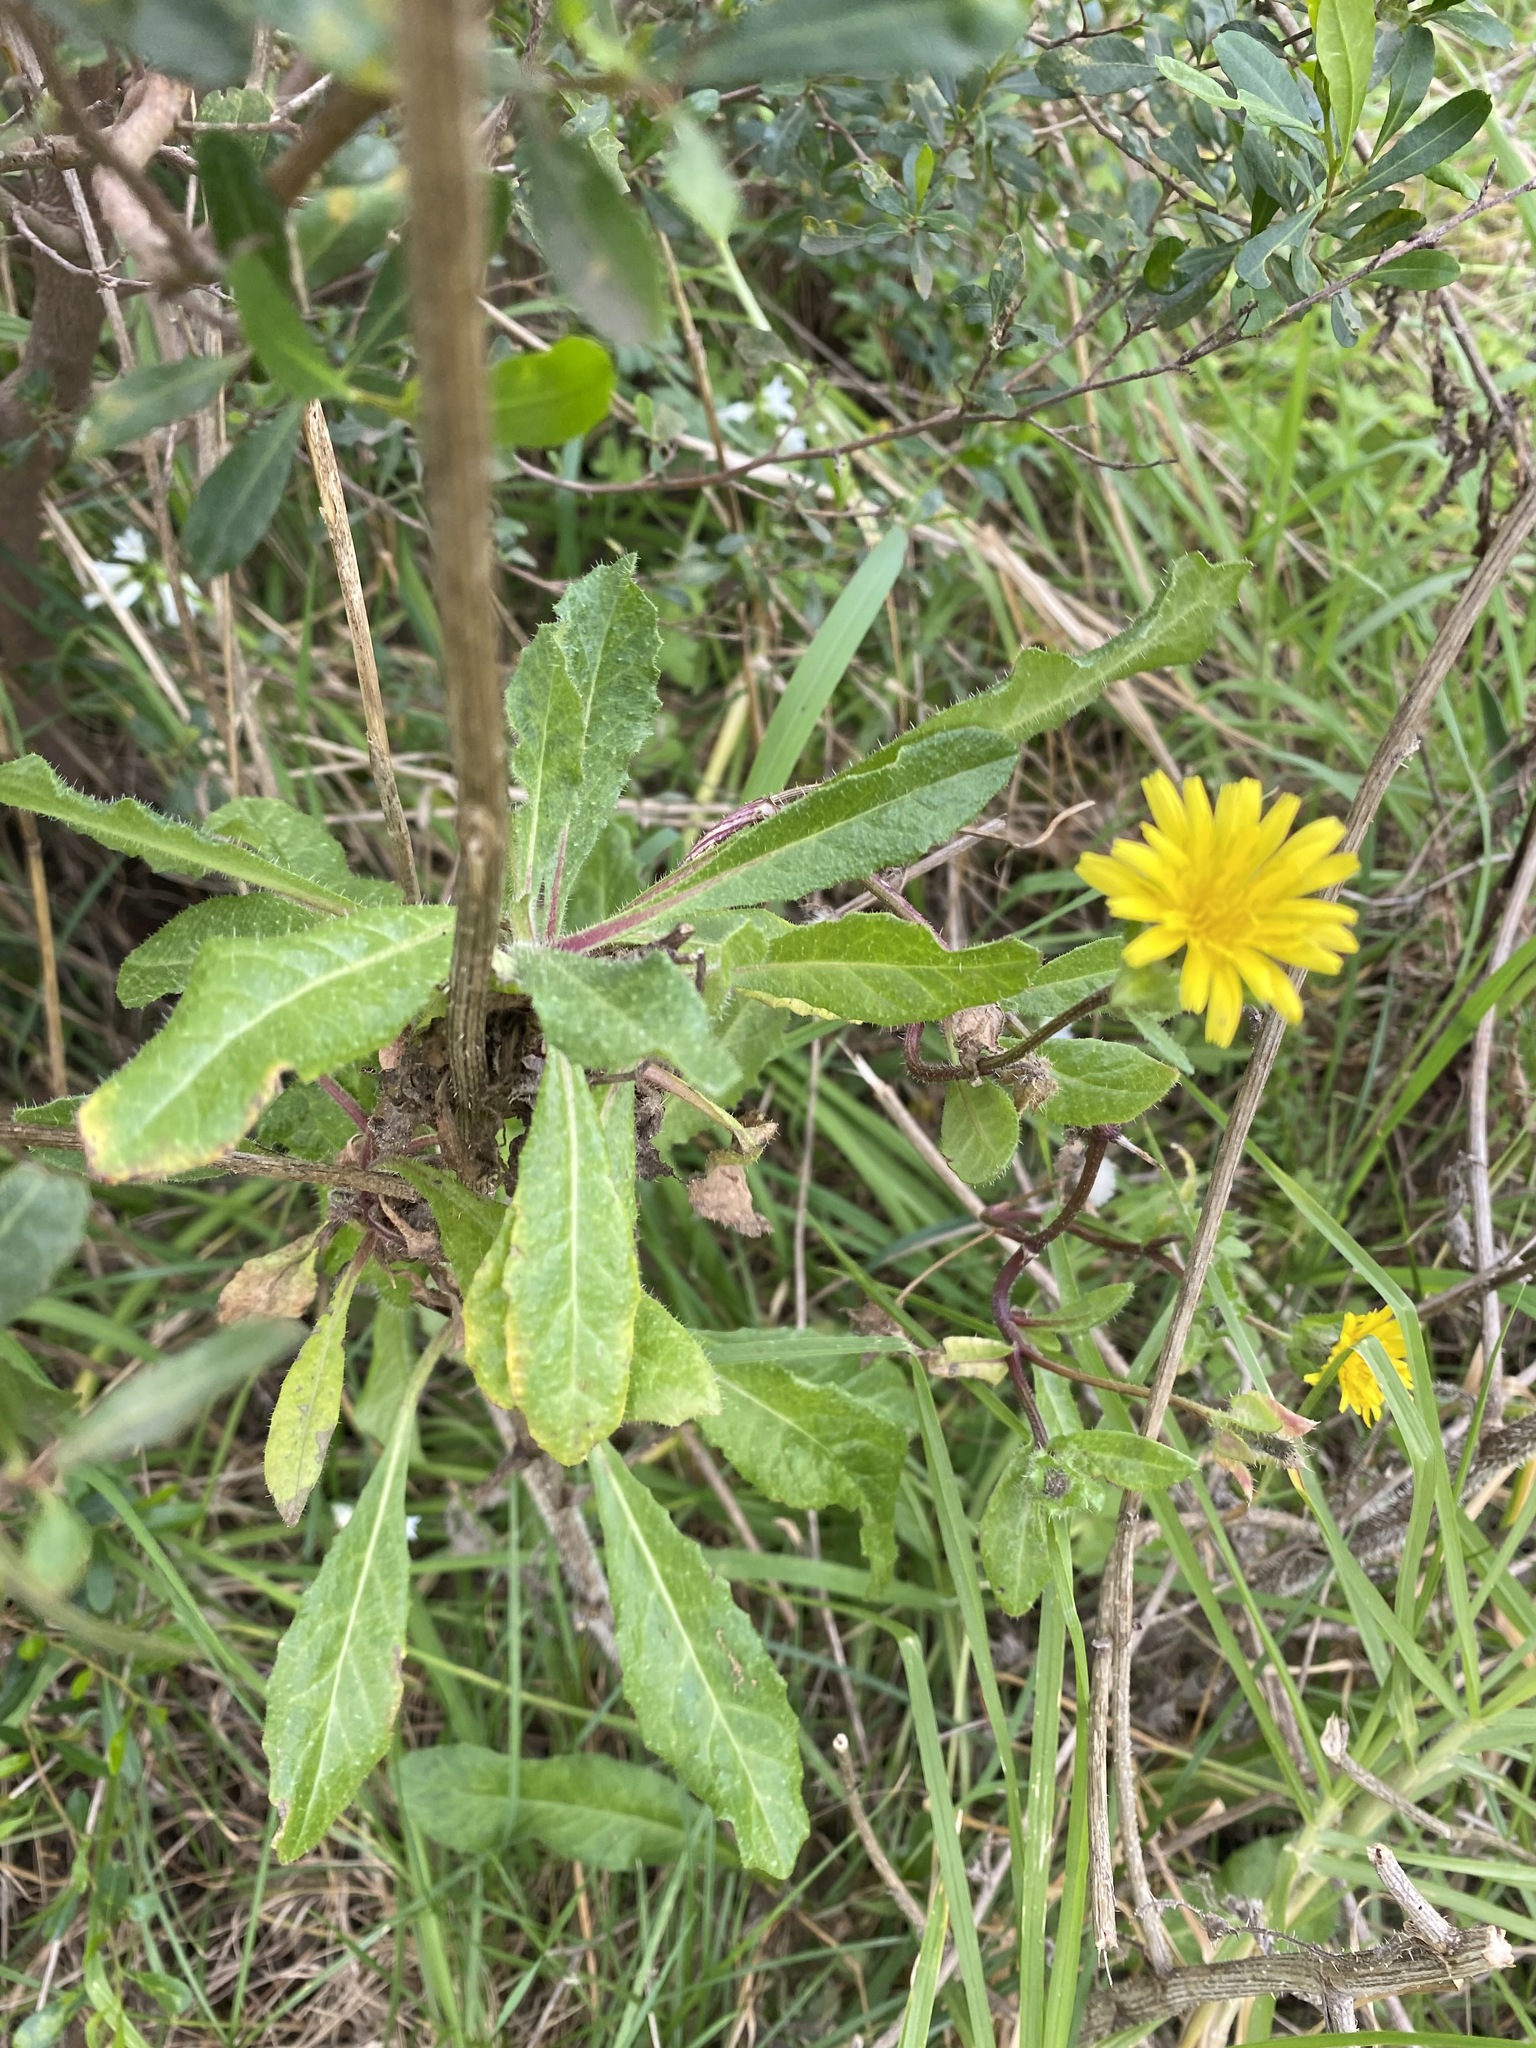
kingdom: Plantae
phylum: Tracheophyta
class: Magnoliopsida
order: Asterales
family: Asteraceae
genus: Helminthotheca
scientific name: Helminthotheca echioides
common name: Ox-tongue
